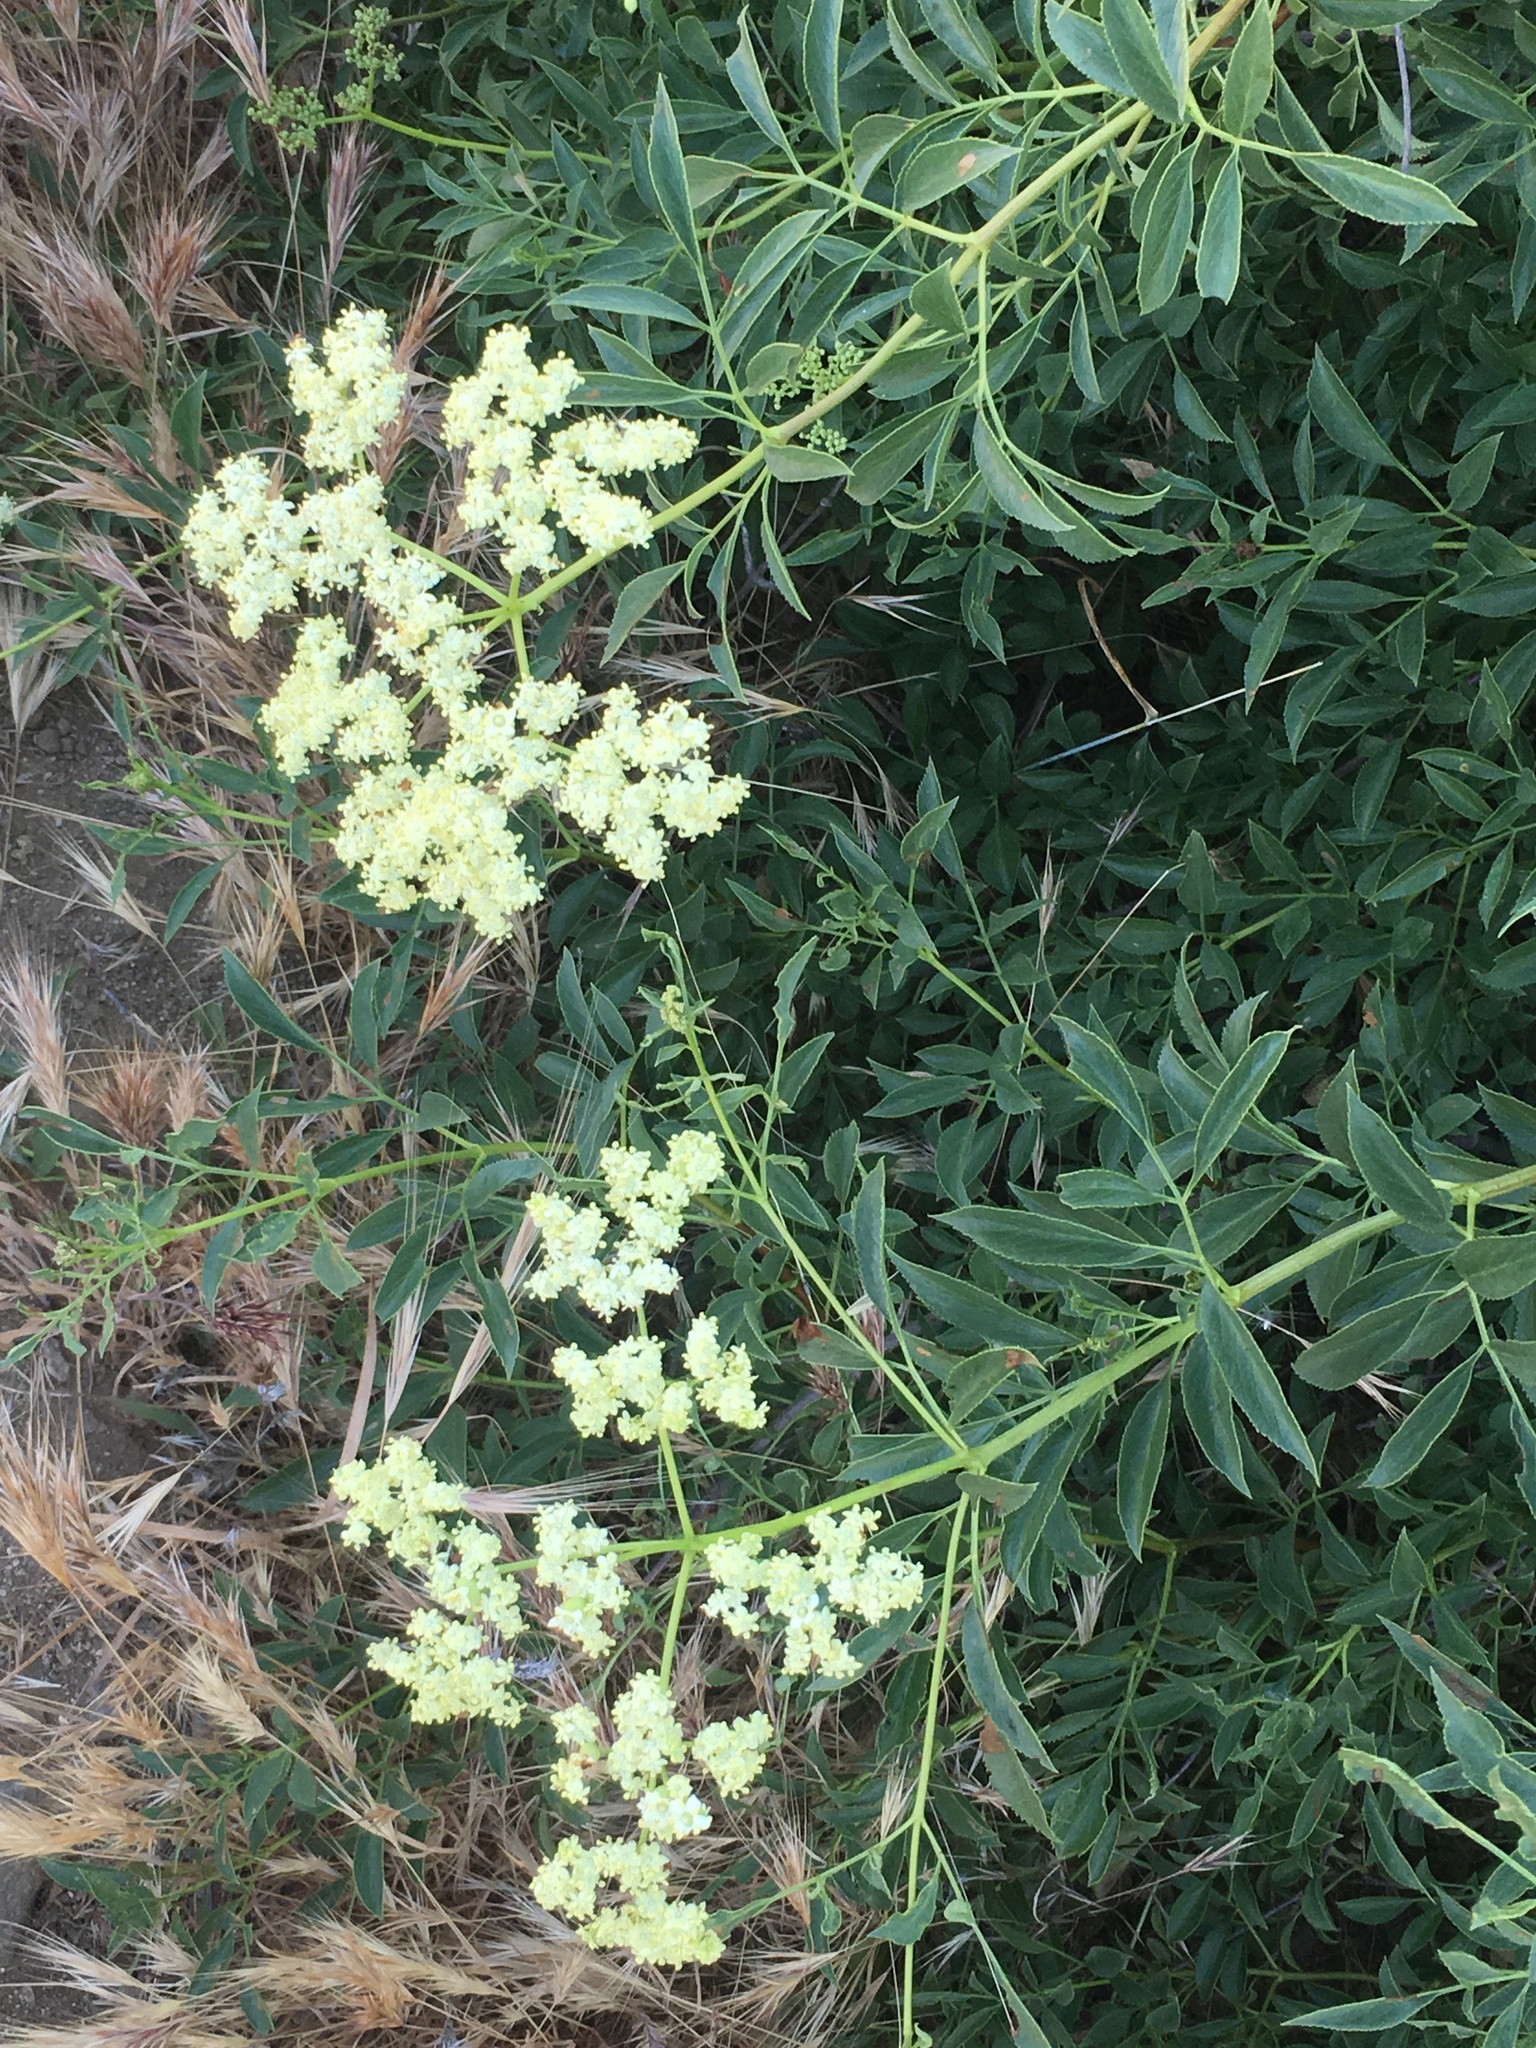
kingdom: Plantae
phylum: Tracheophyta
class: Magnoliopsida
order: Dipsacales
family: Viburnaceae
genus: Sambucus
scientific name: Sambucus cerulea
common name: Blue elder
